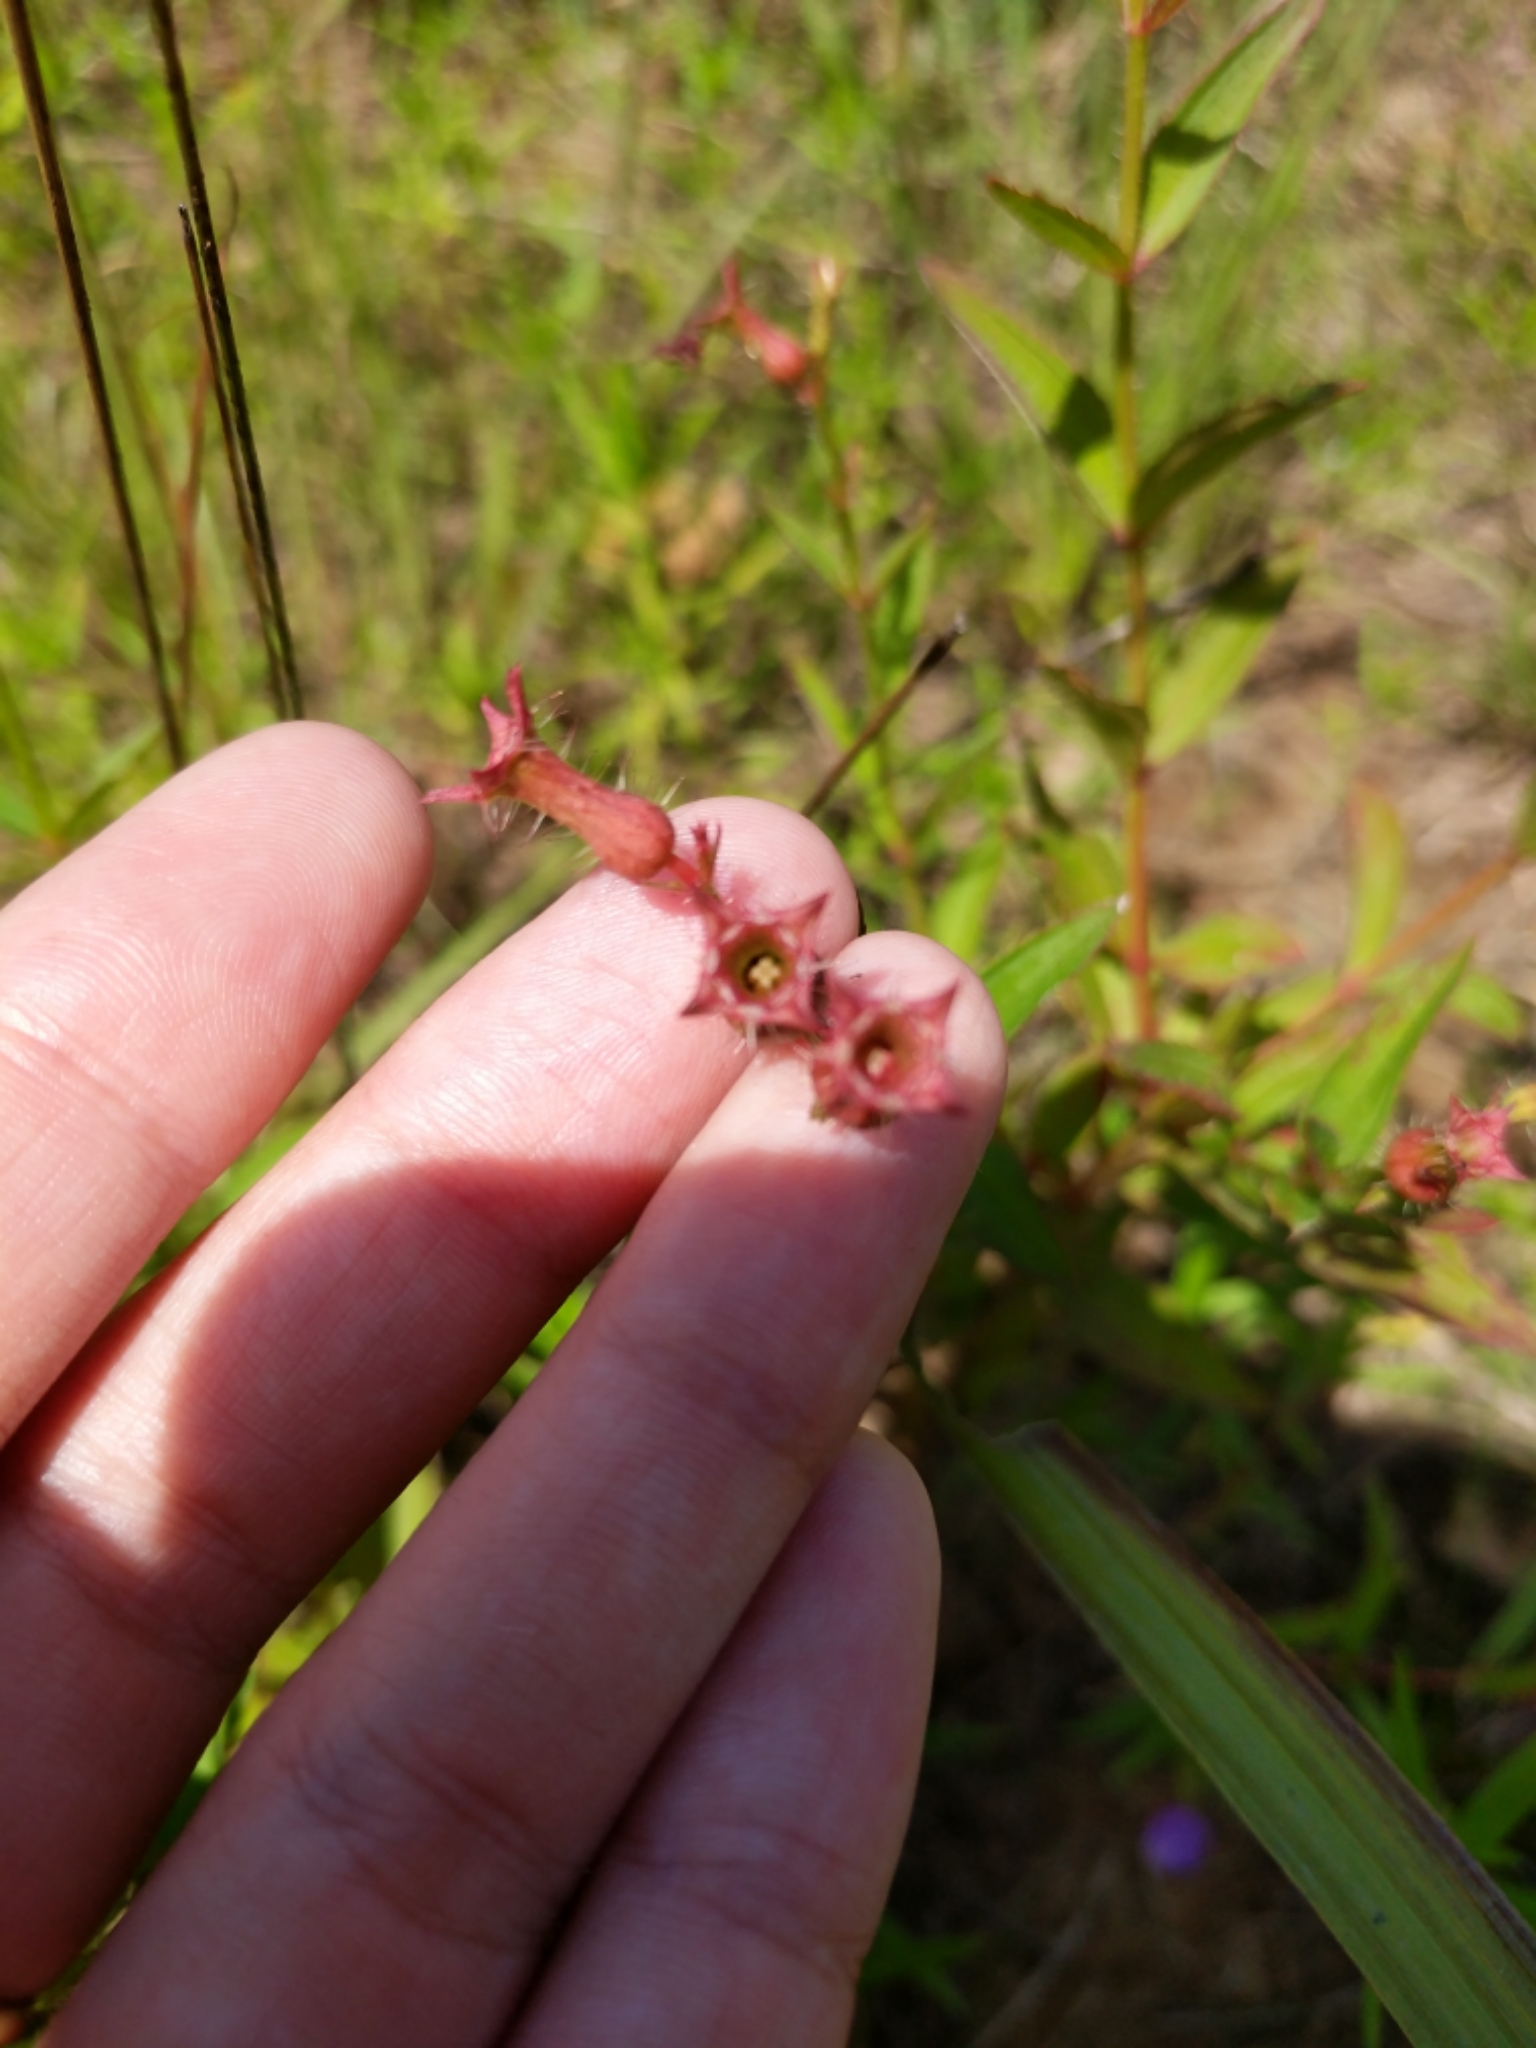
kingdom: Plantae
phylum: Tracheophyta
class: Magnoliopsida
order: Myrtales
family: Melastomataceae
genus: Rhexia
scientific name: Rhexia mariana
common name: Dull meadow-pitcher
